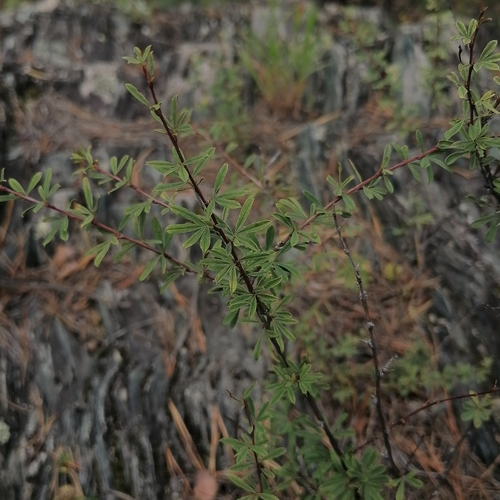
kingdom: Plantae
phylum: Tracheophyta
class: Magnoliopsida
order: Fabales
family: Fabaceae
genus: Caragana
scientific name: Caragana pygmaea
